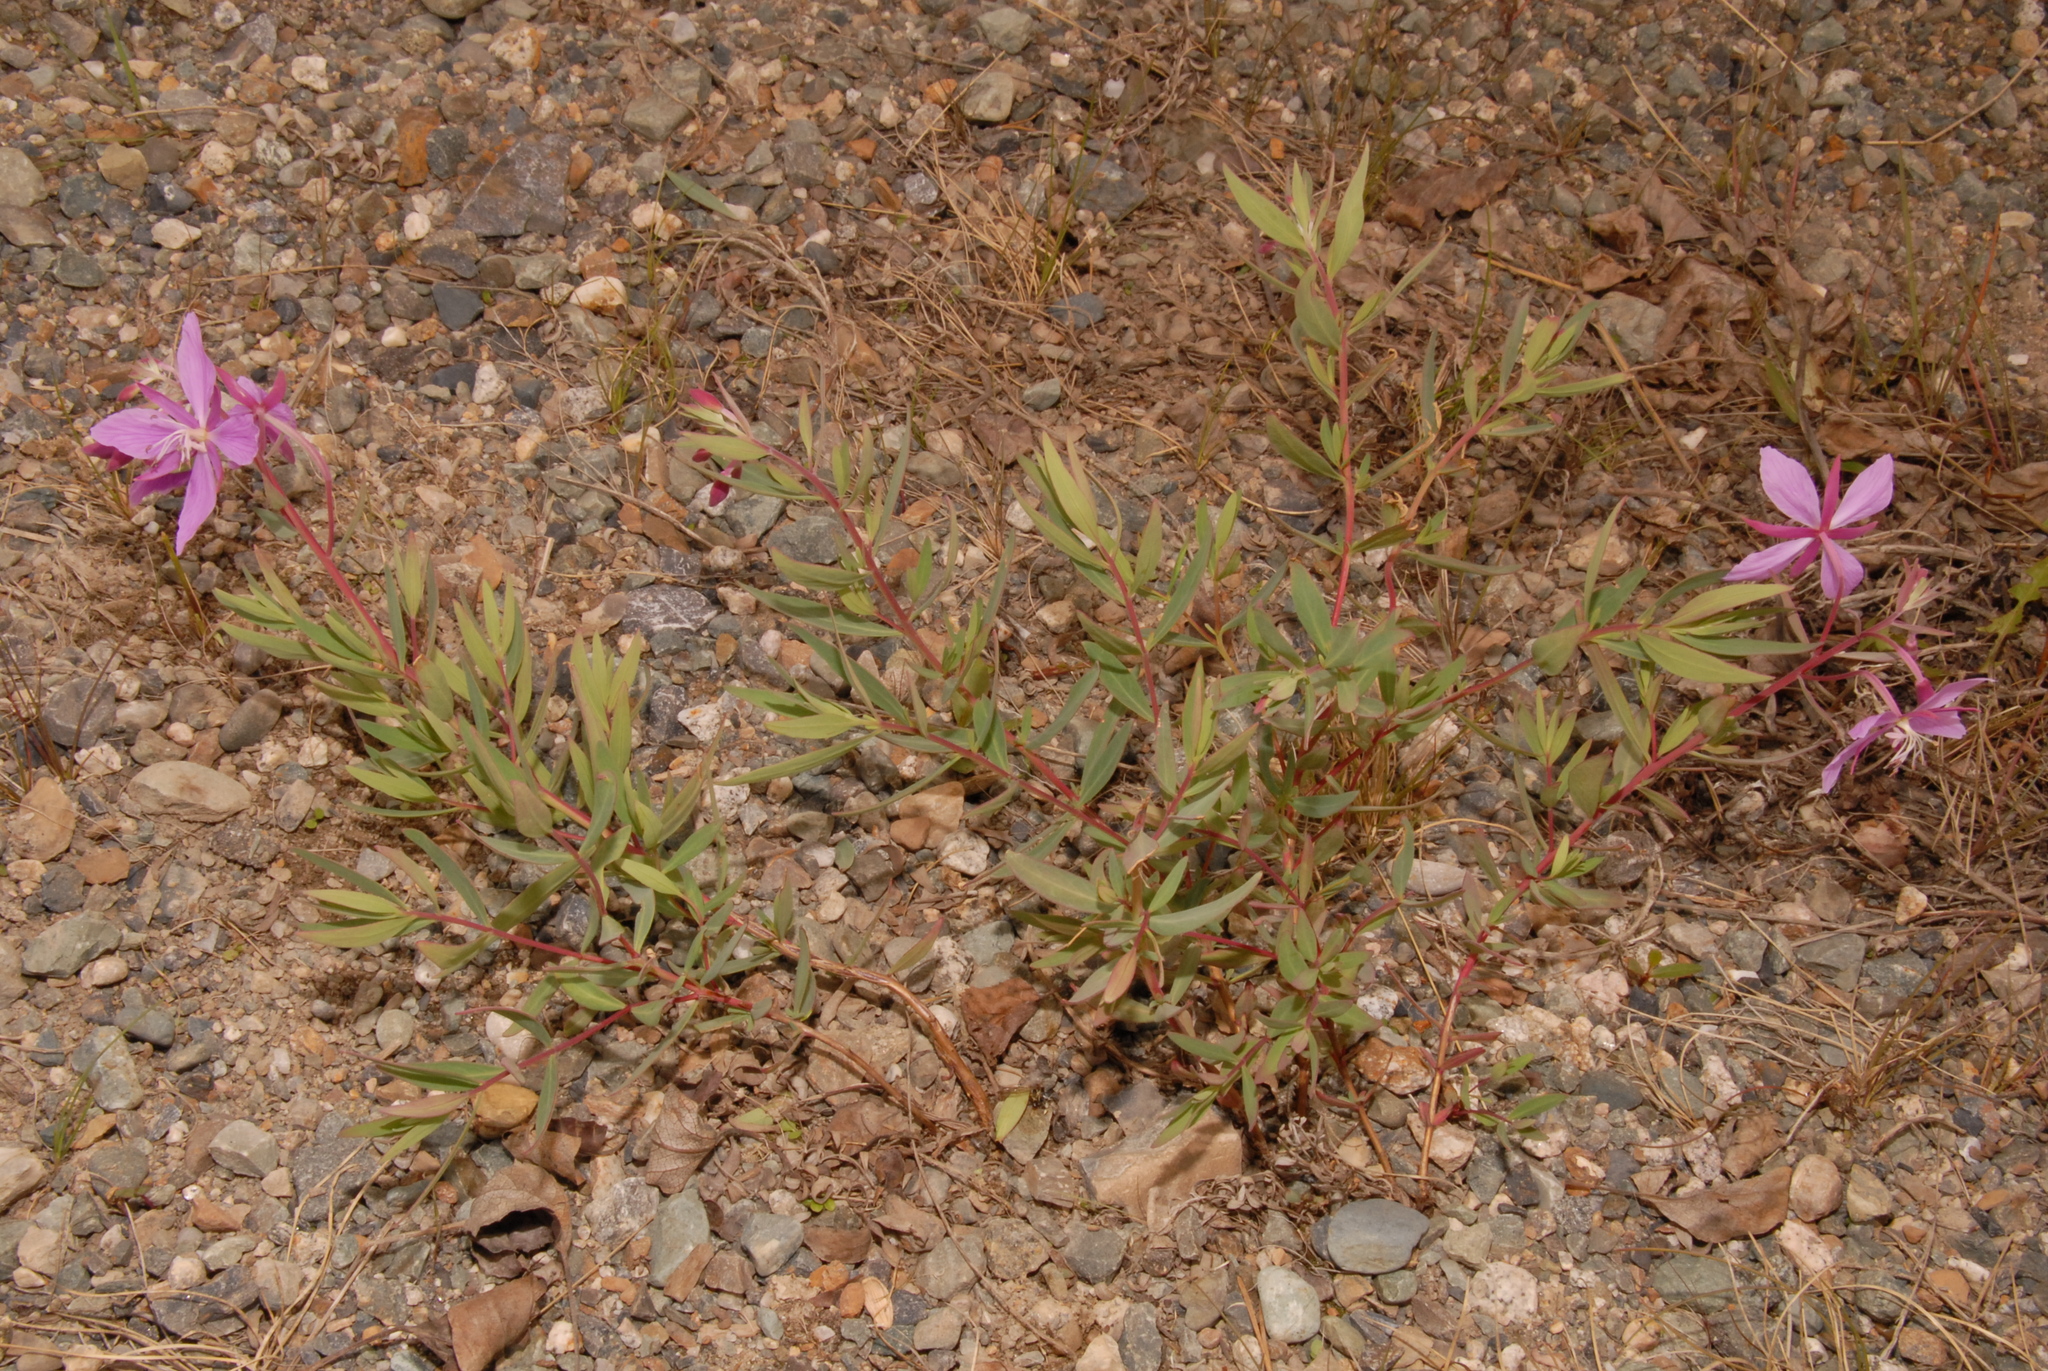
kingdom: Plantae
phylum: Tracheophyta
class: Magnoliopsida
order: Myrtales
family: Onagraceae
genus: Chamaenerion
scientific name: Chamaenerion latifolium
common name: Dwarf fireweed
